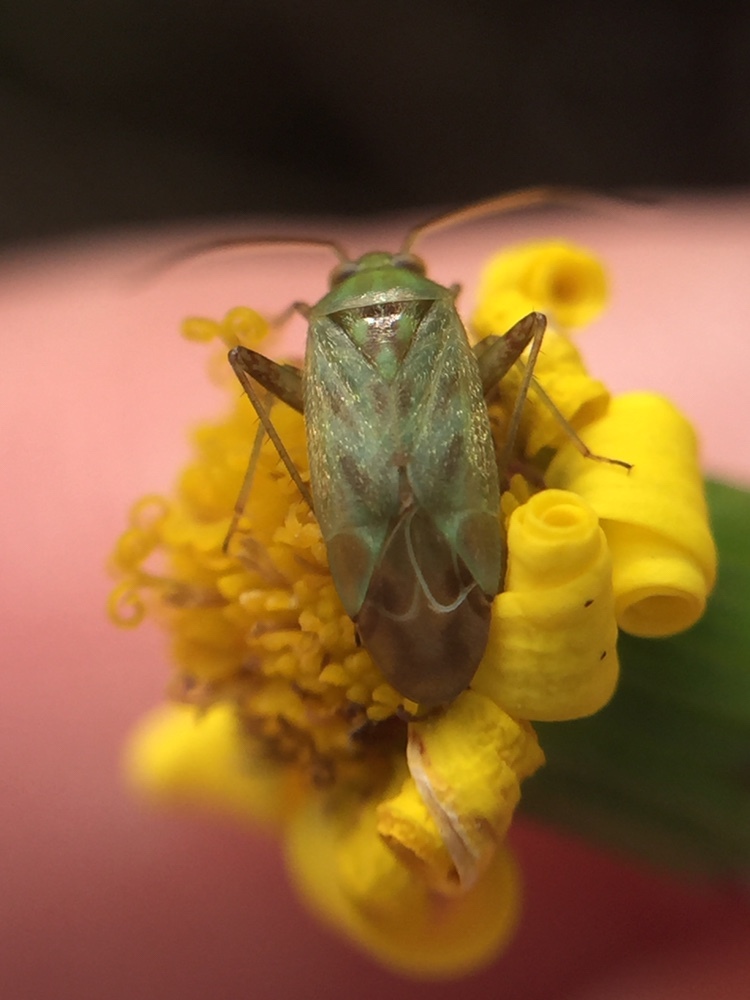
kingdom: Animalia
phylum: Arthropoda
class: Insecta
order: Hemiptera
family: Miridae
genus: Taylorilygus
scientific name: Taylorilygus apicalis
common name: Plant bug
